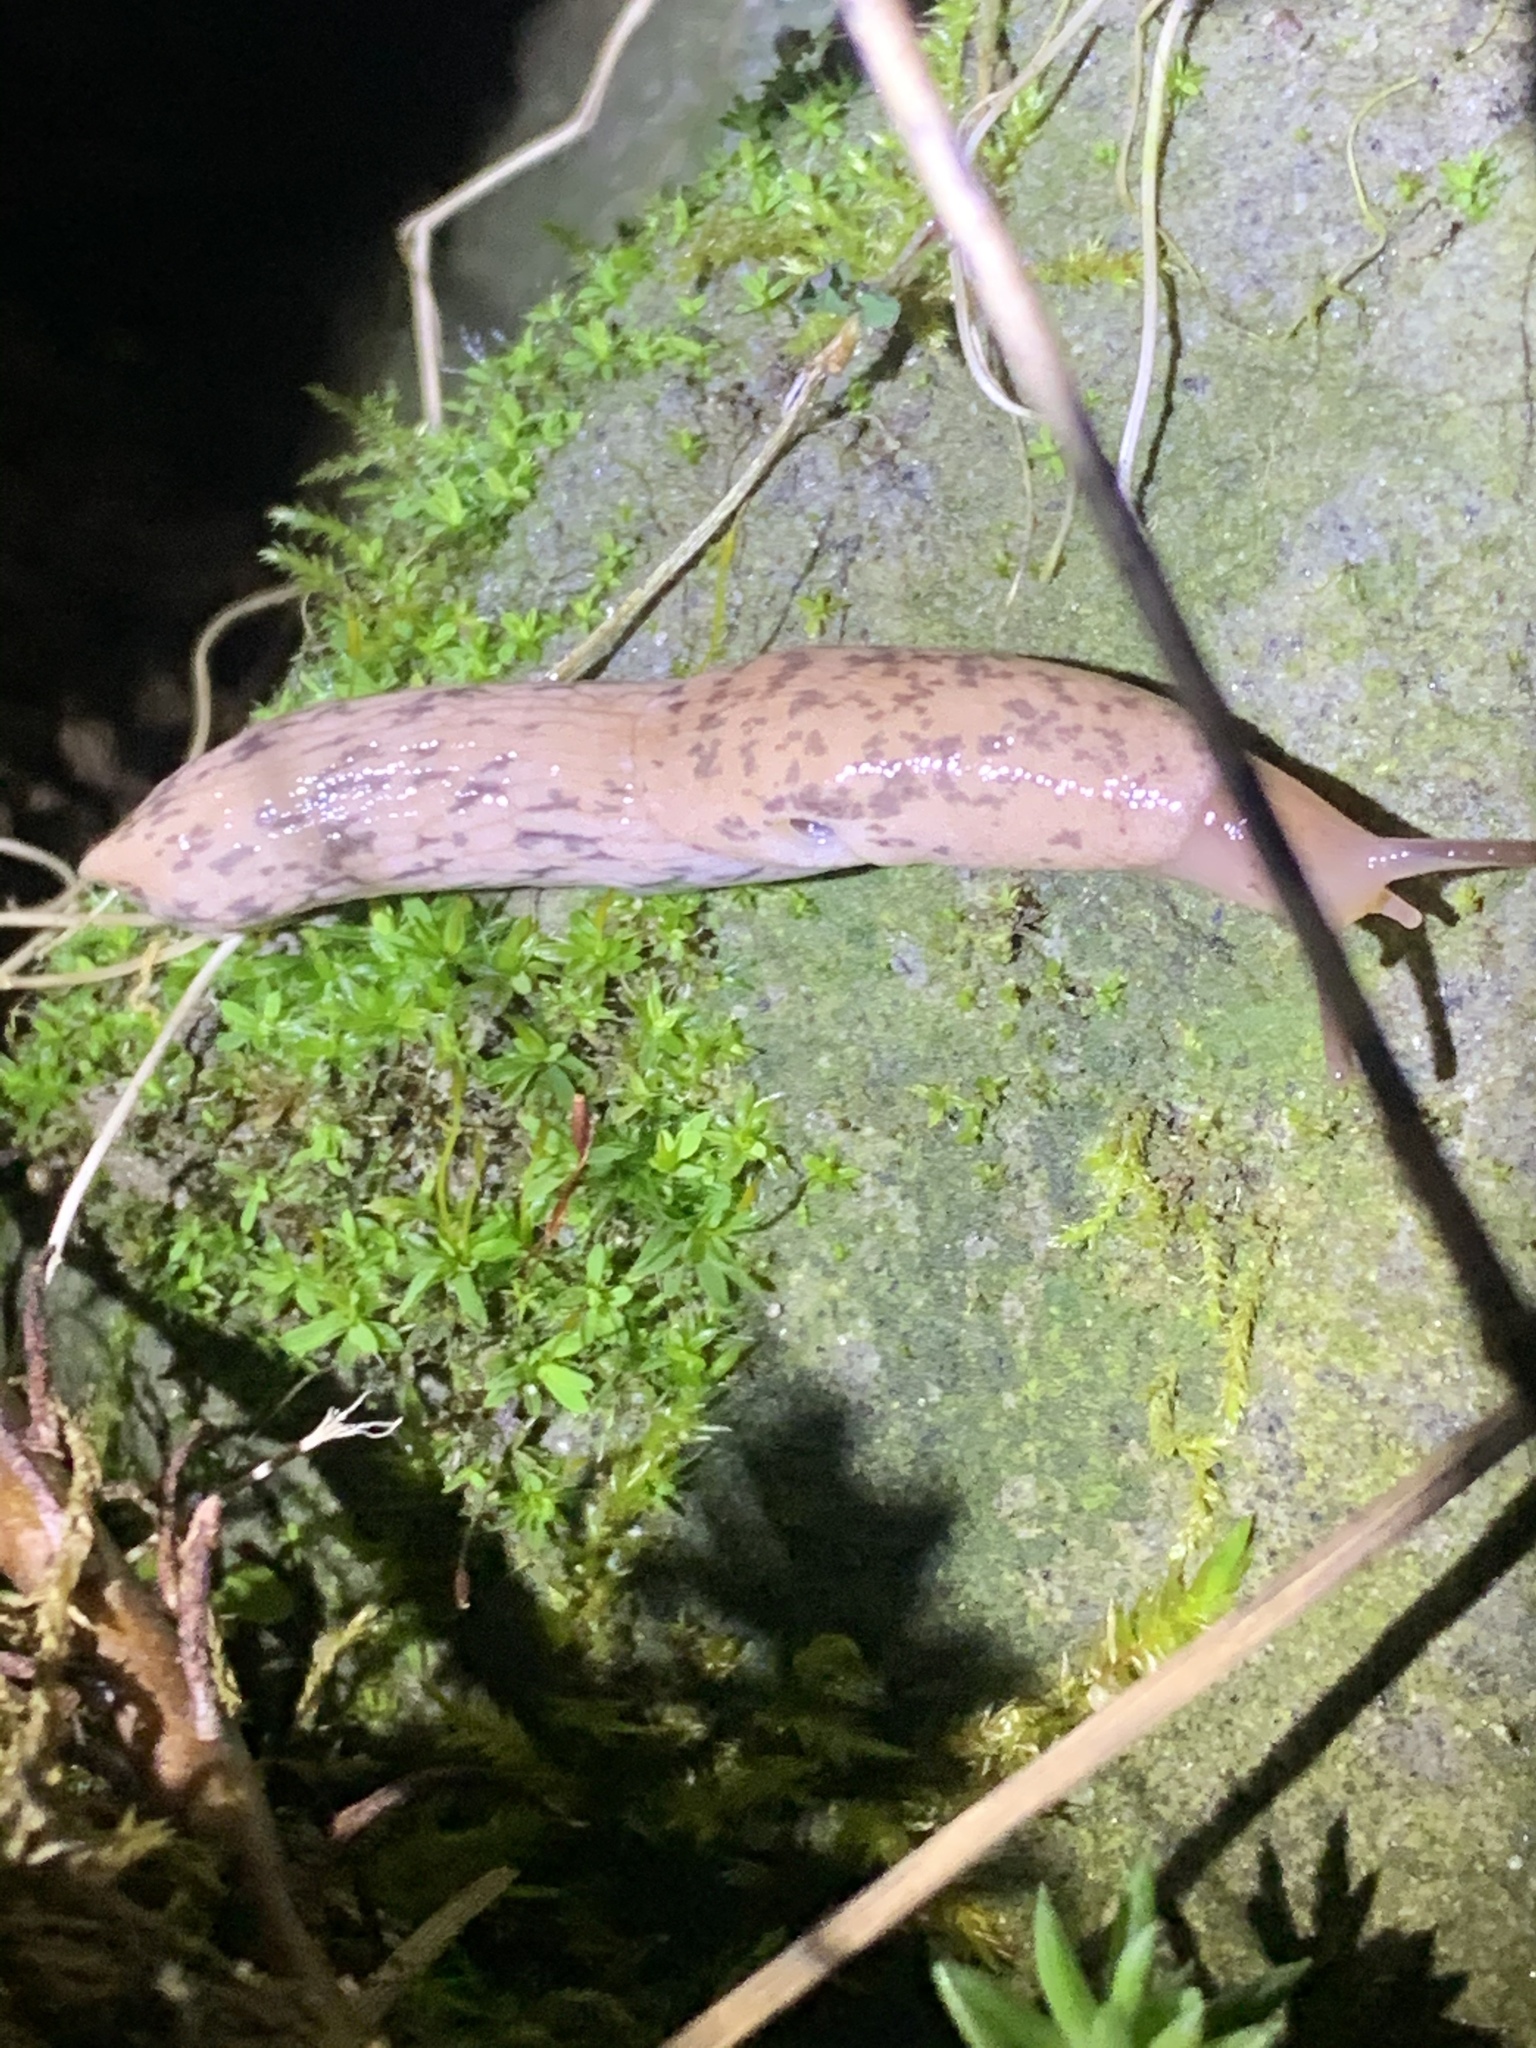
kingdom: Animalia
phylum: Mollusca
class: Gastropoda
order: Stylommatophora
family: Agriolimacidae
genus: Deroceras
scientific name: Deroceras reticulatum
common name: Gray field slug
